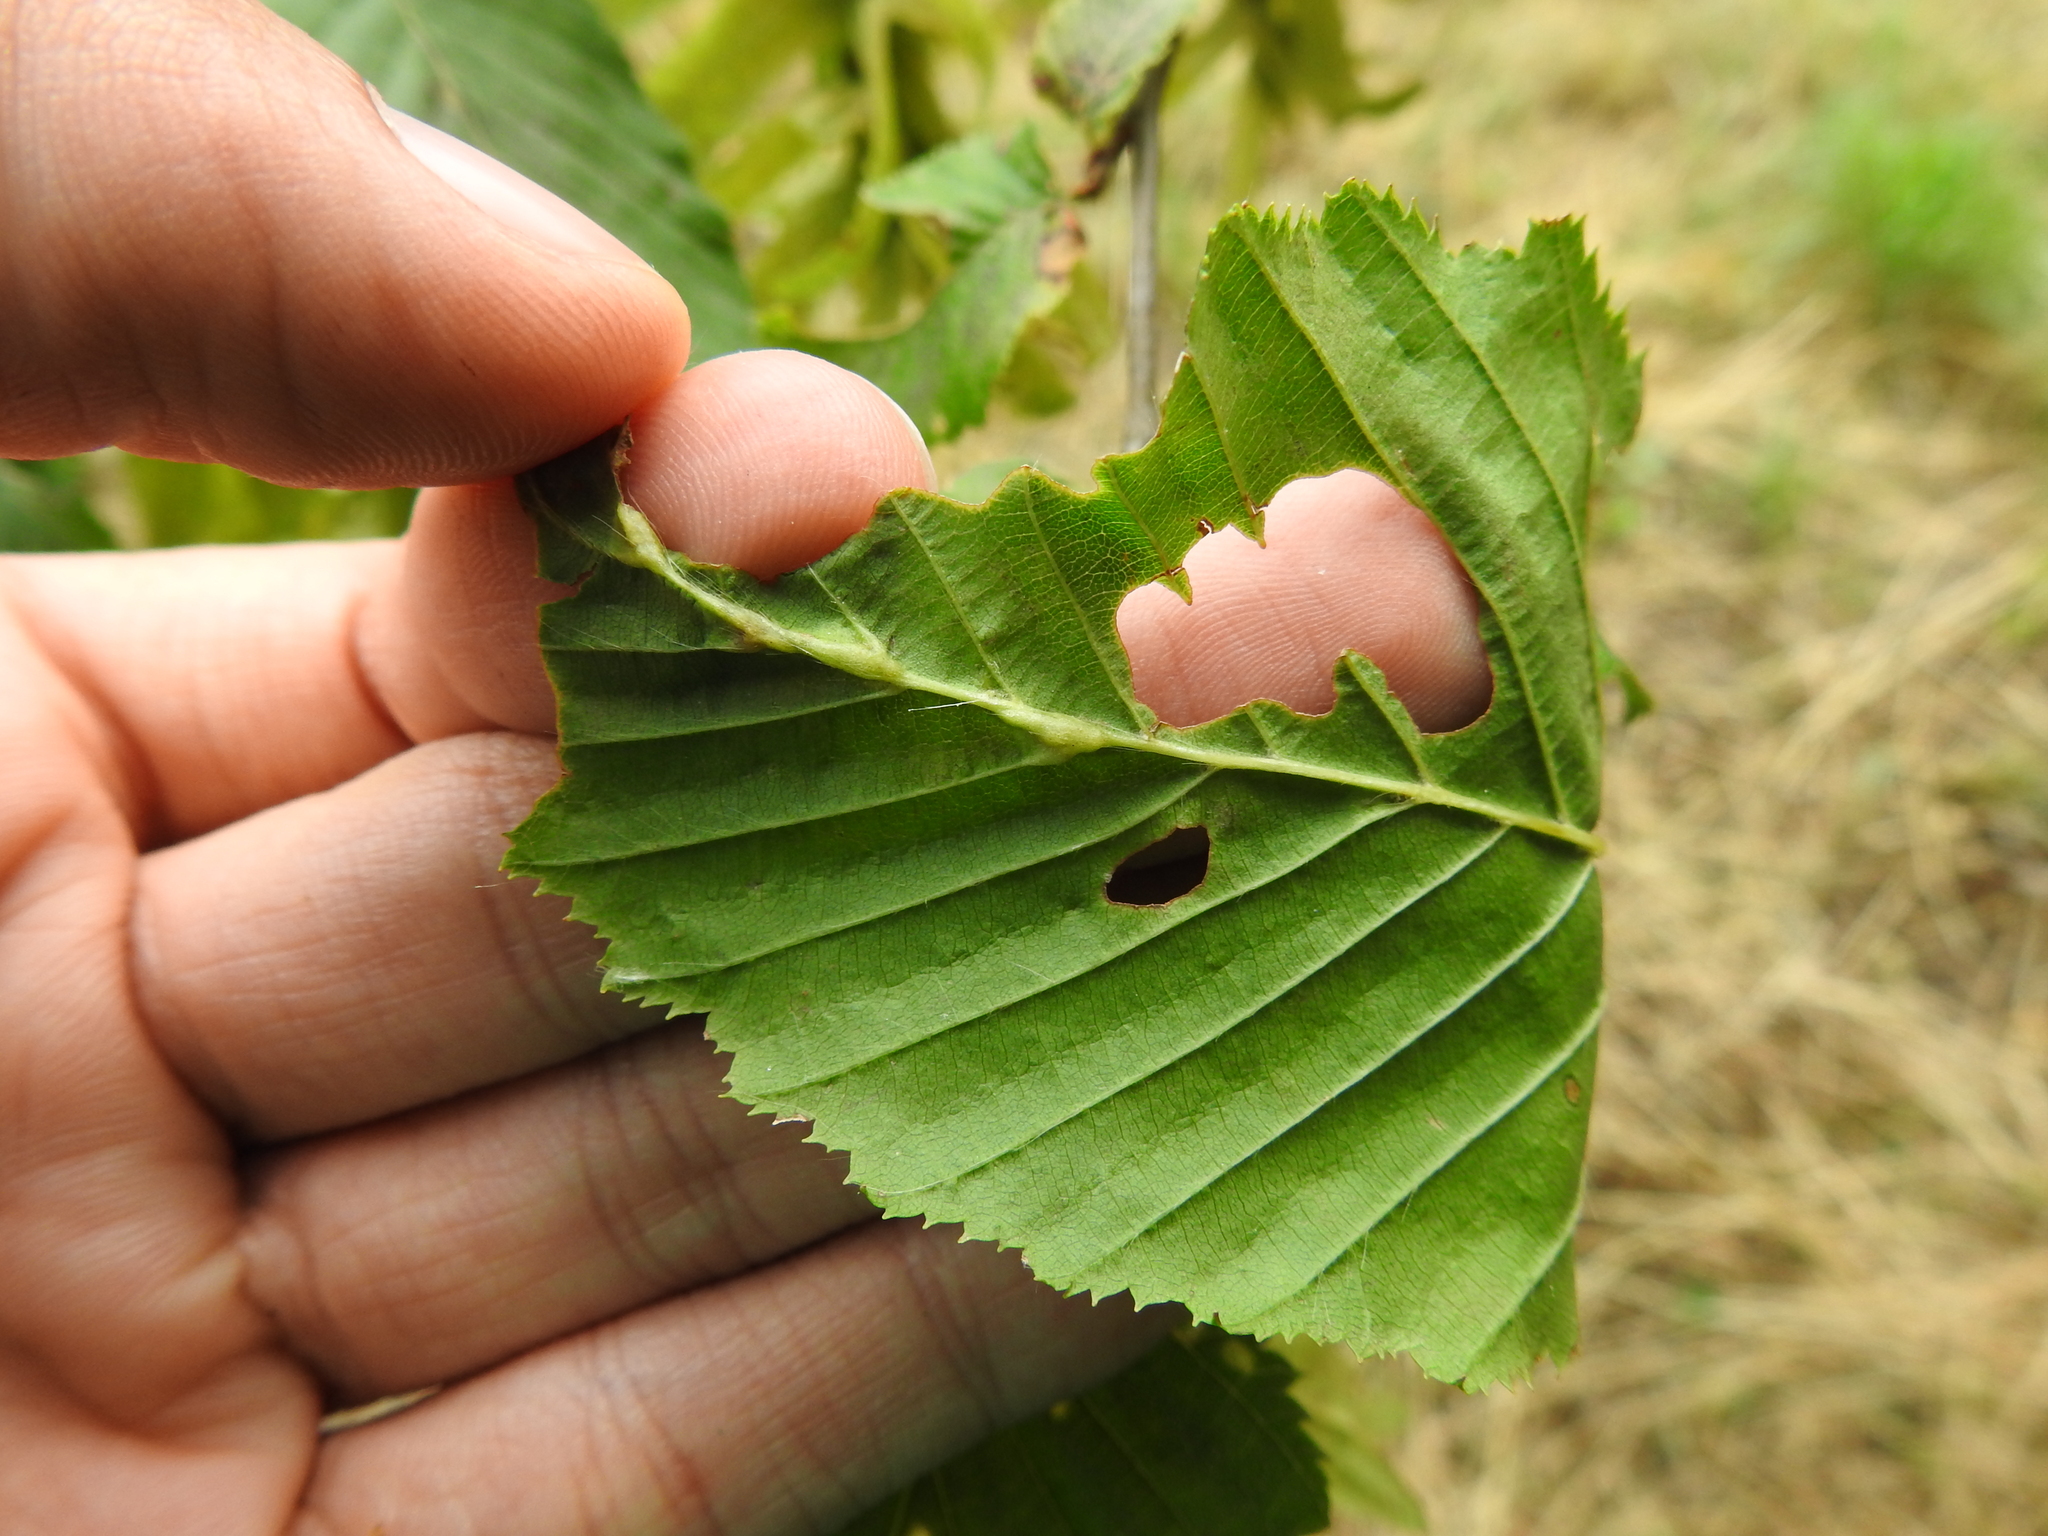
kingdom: Animalia
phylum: Arthropoda
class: Insecta
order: Diptera
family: Cecidomyiidae
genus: Zygiobia
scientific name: Zygiobia carpini
